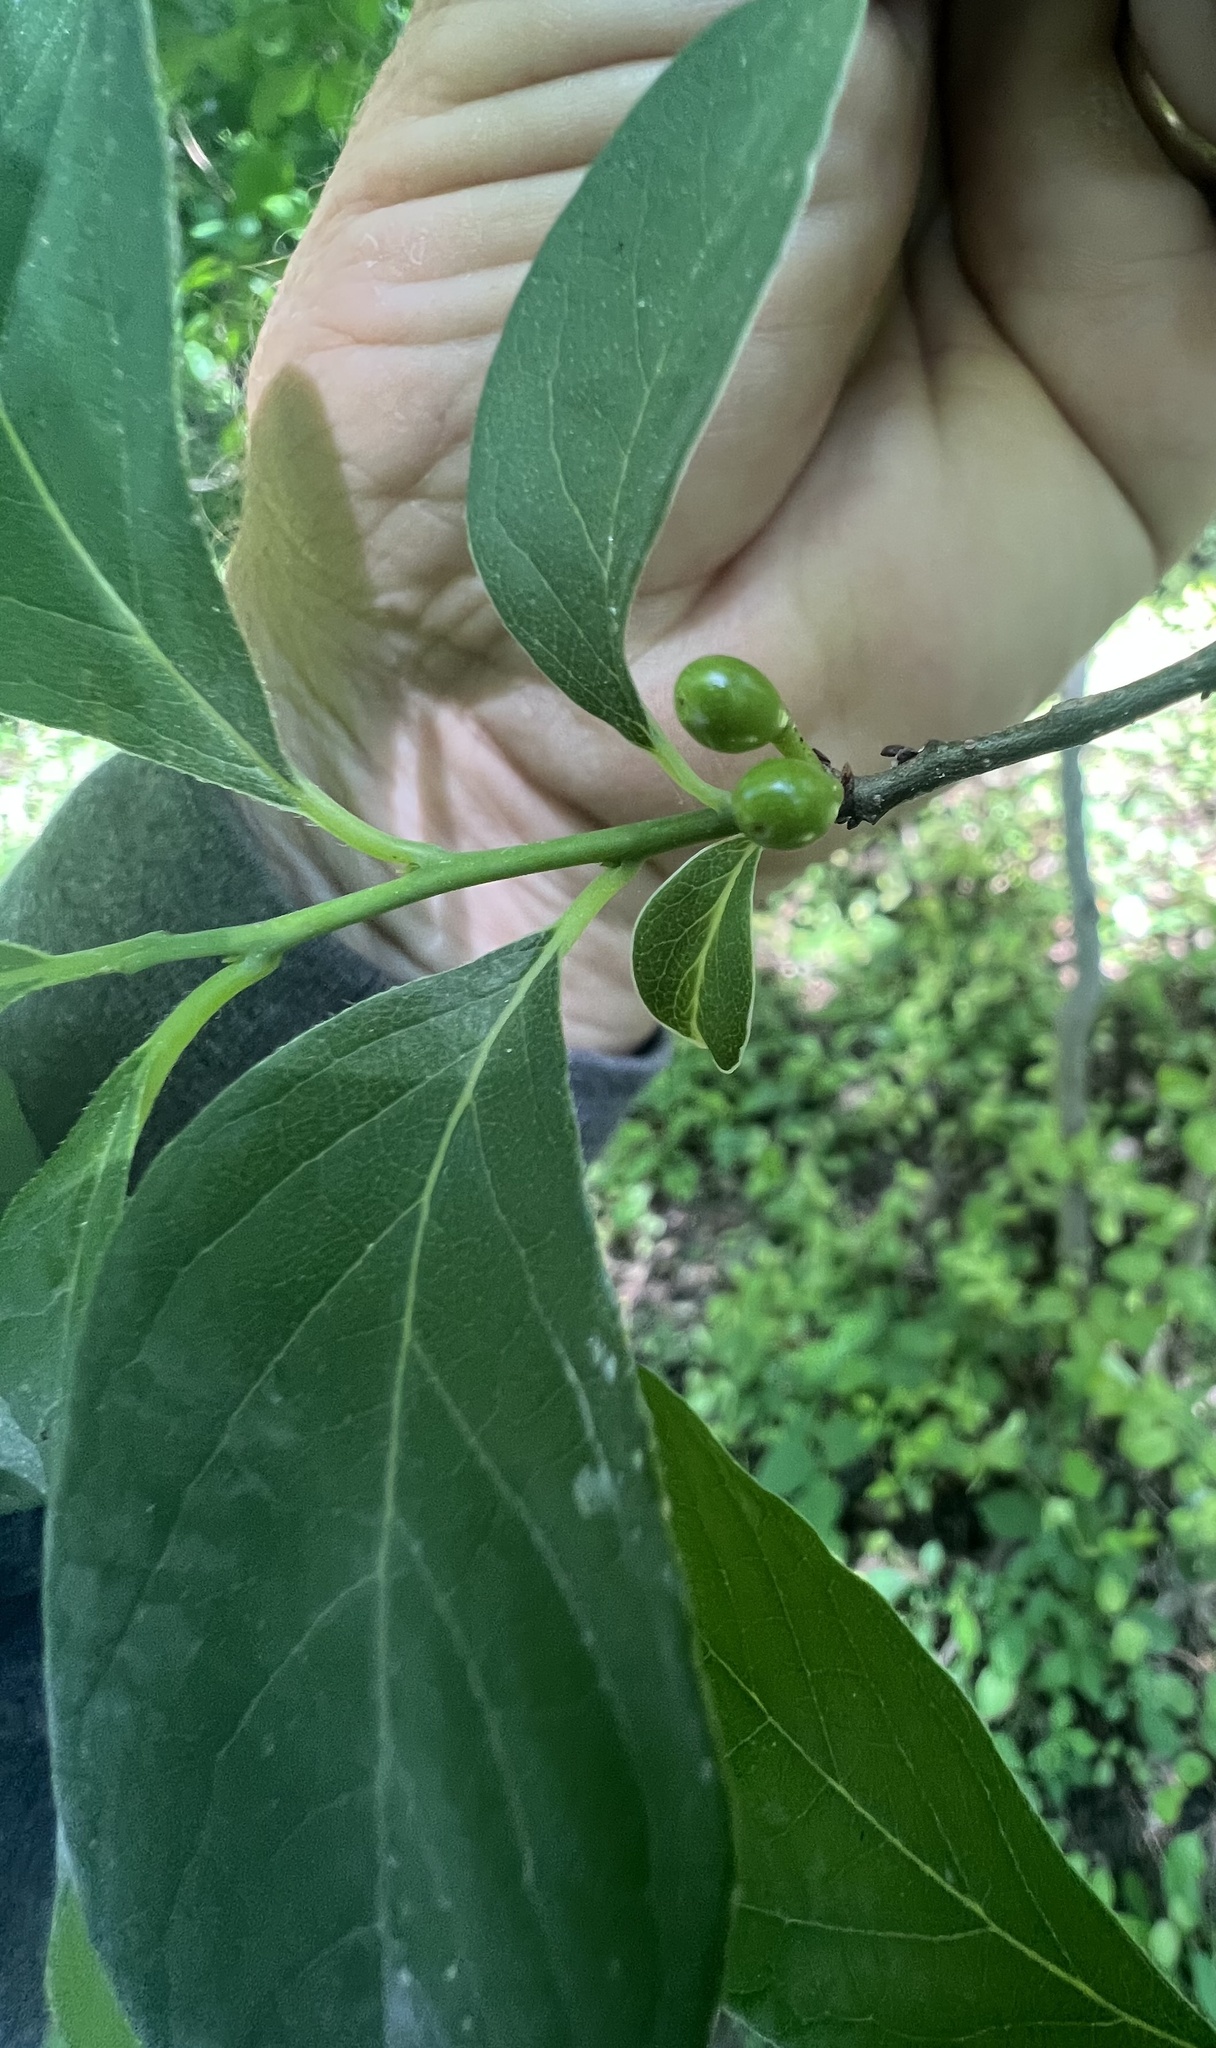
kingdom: Plantae
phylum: Tracheophyta
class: Magnoliopsida
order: Laurales
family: Lauraceae
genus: Lindera
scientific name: Lindera benzoin
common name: Spicebush
